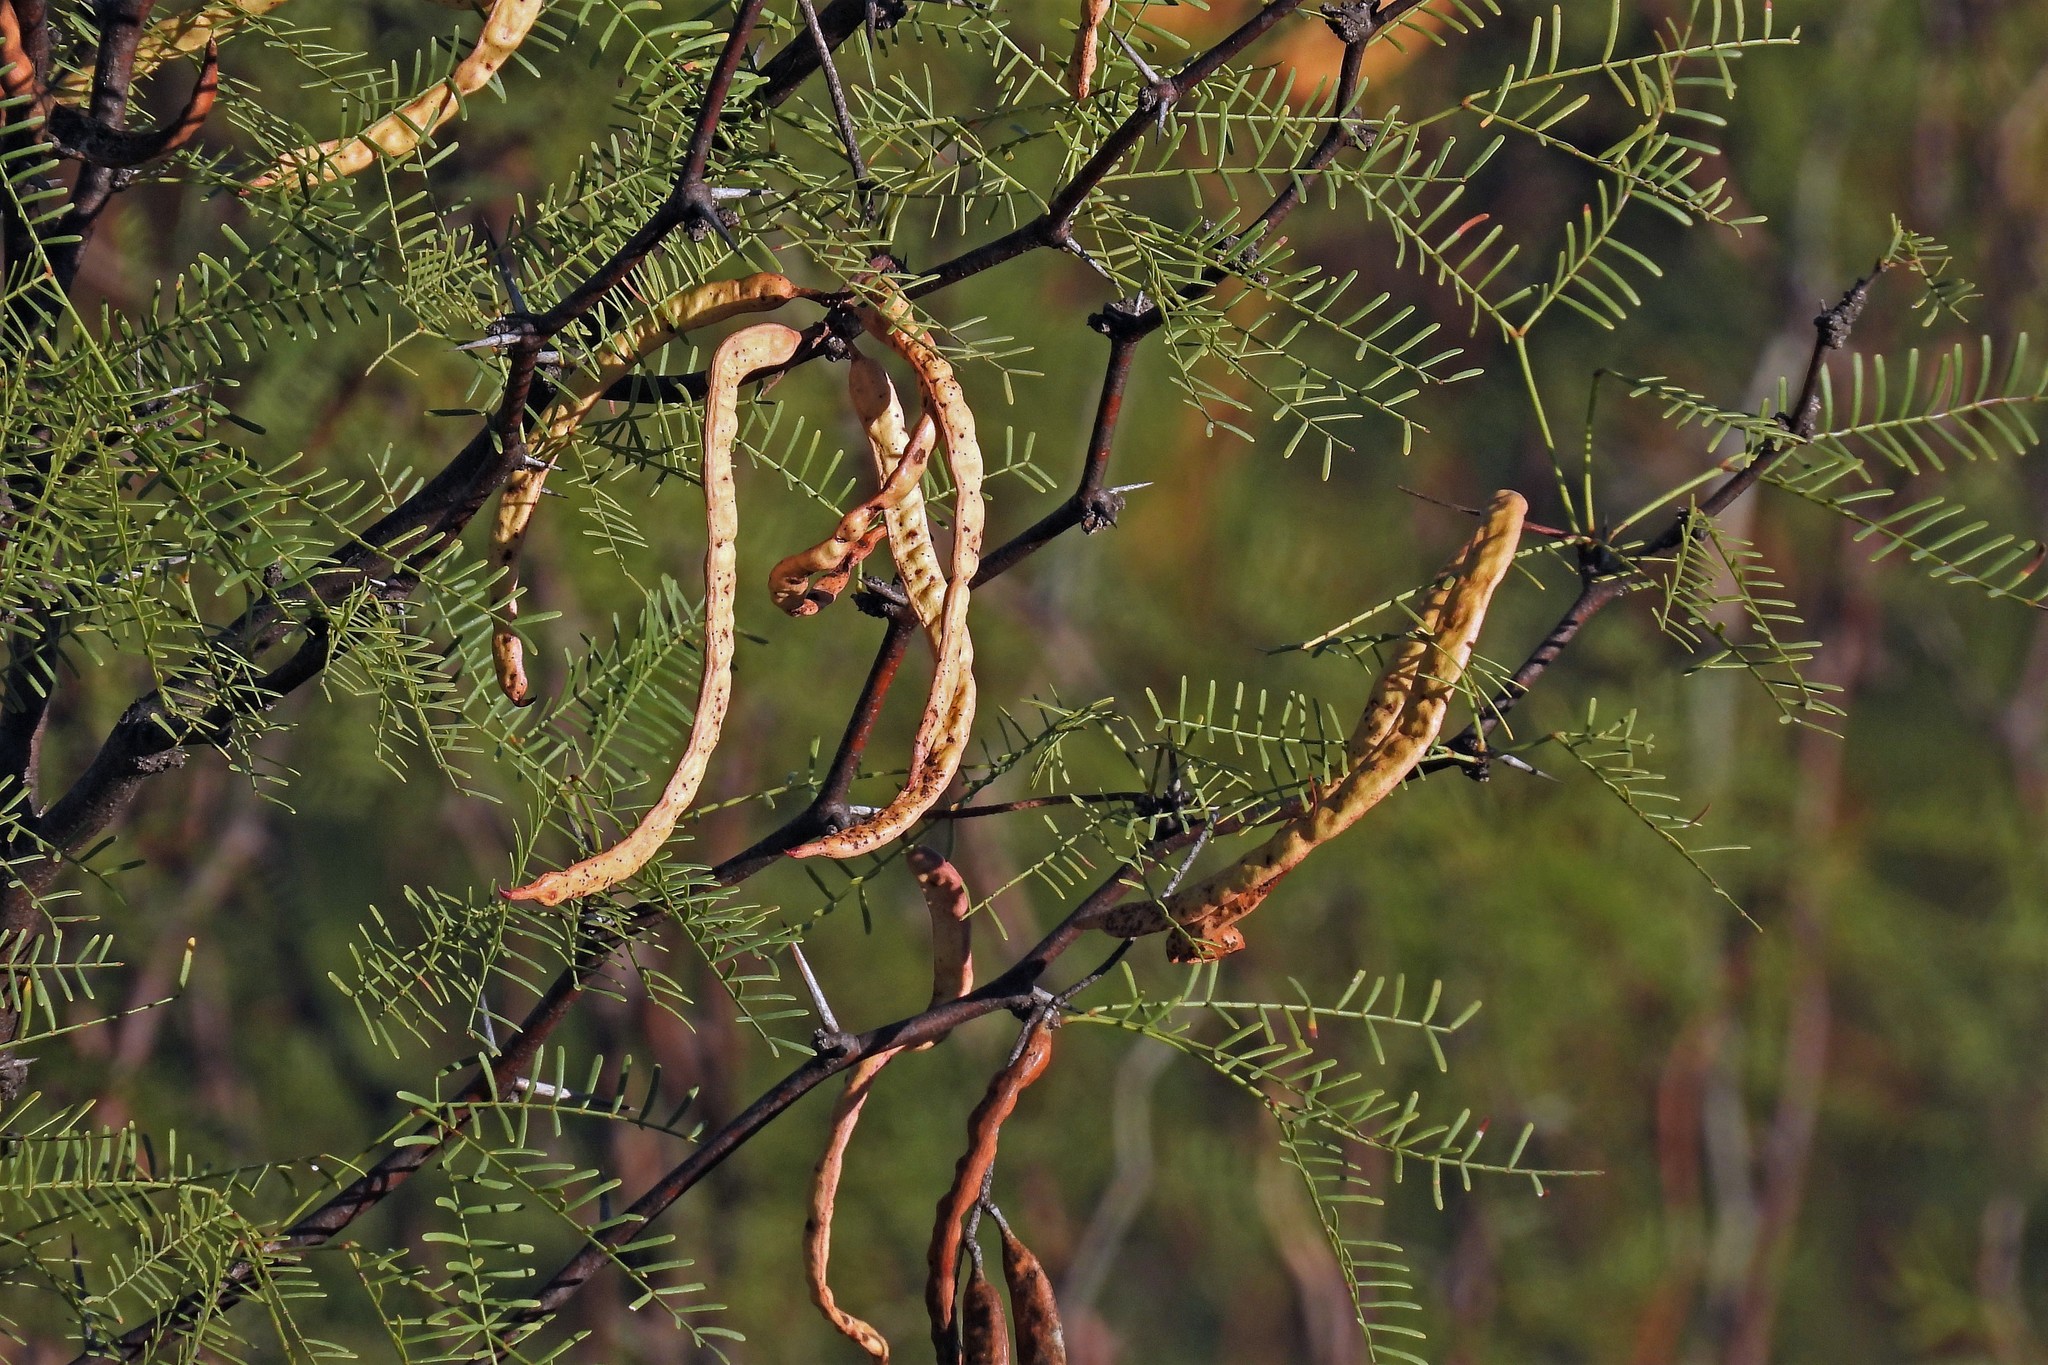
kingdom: Plantae
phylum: Tracheophyta
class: Magnoliopsida
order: Fabales
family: Fabaceae
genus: Prosopis
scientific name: Prosopis alpataco
